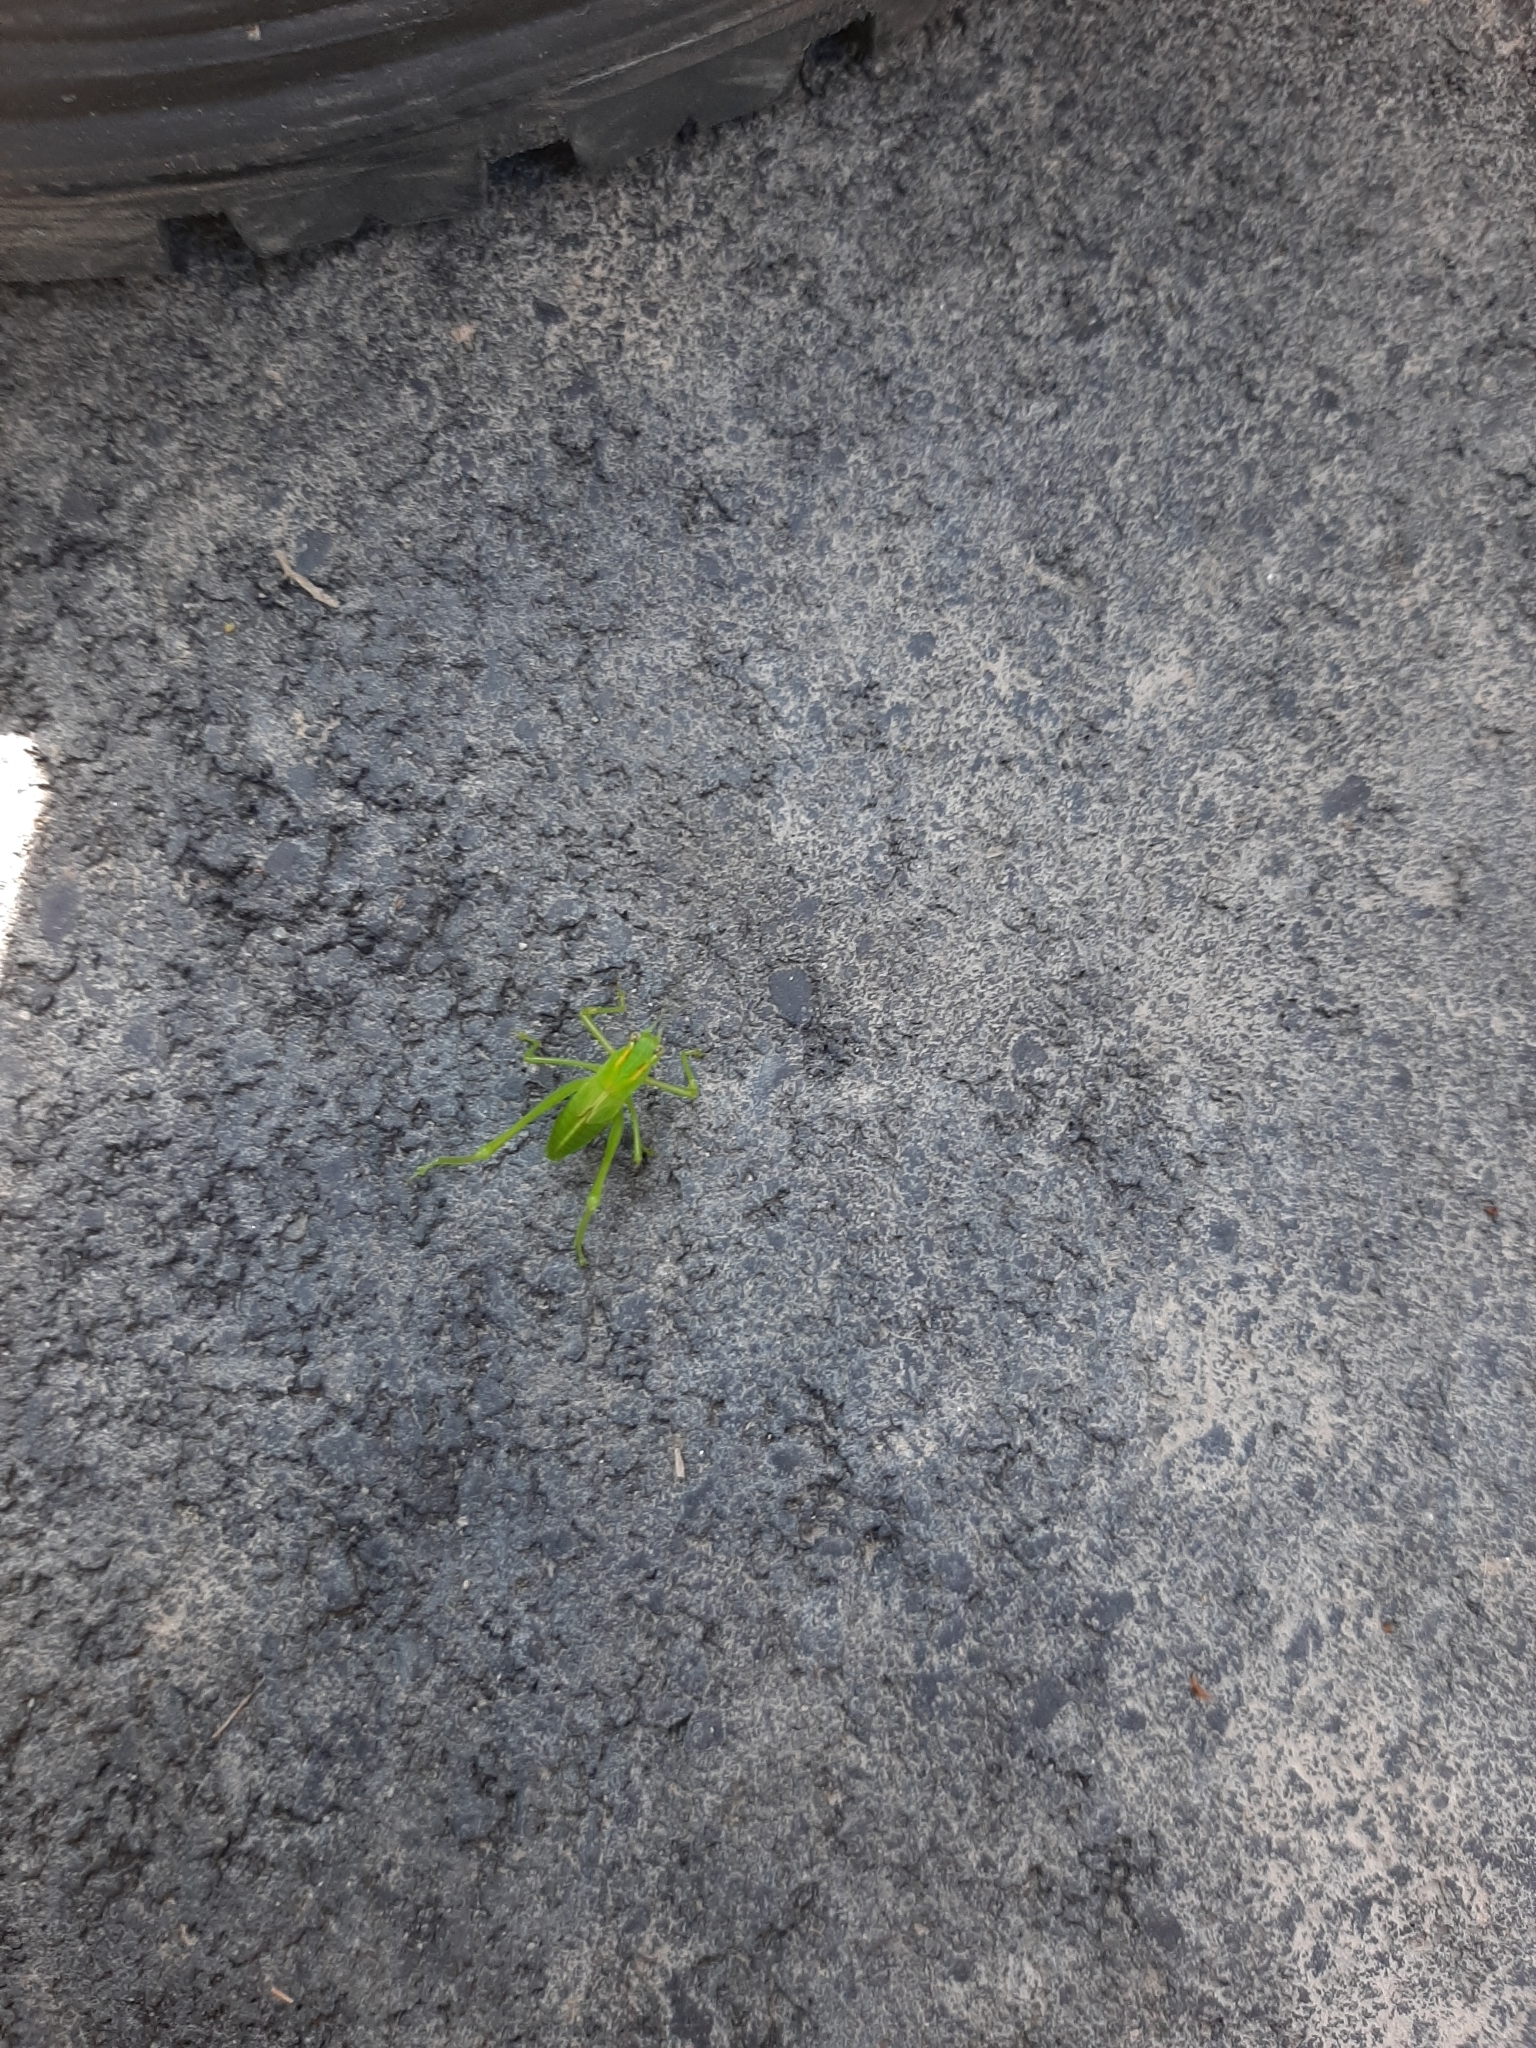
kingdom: Animalia
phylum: Arthropoda
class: Insecta
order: Orthoptera
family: Tettigoniidae
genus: Caedicia
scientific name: Caedicia simplex
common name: Common garden katydid
